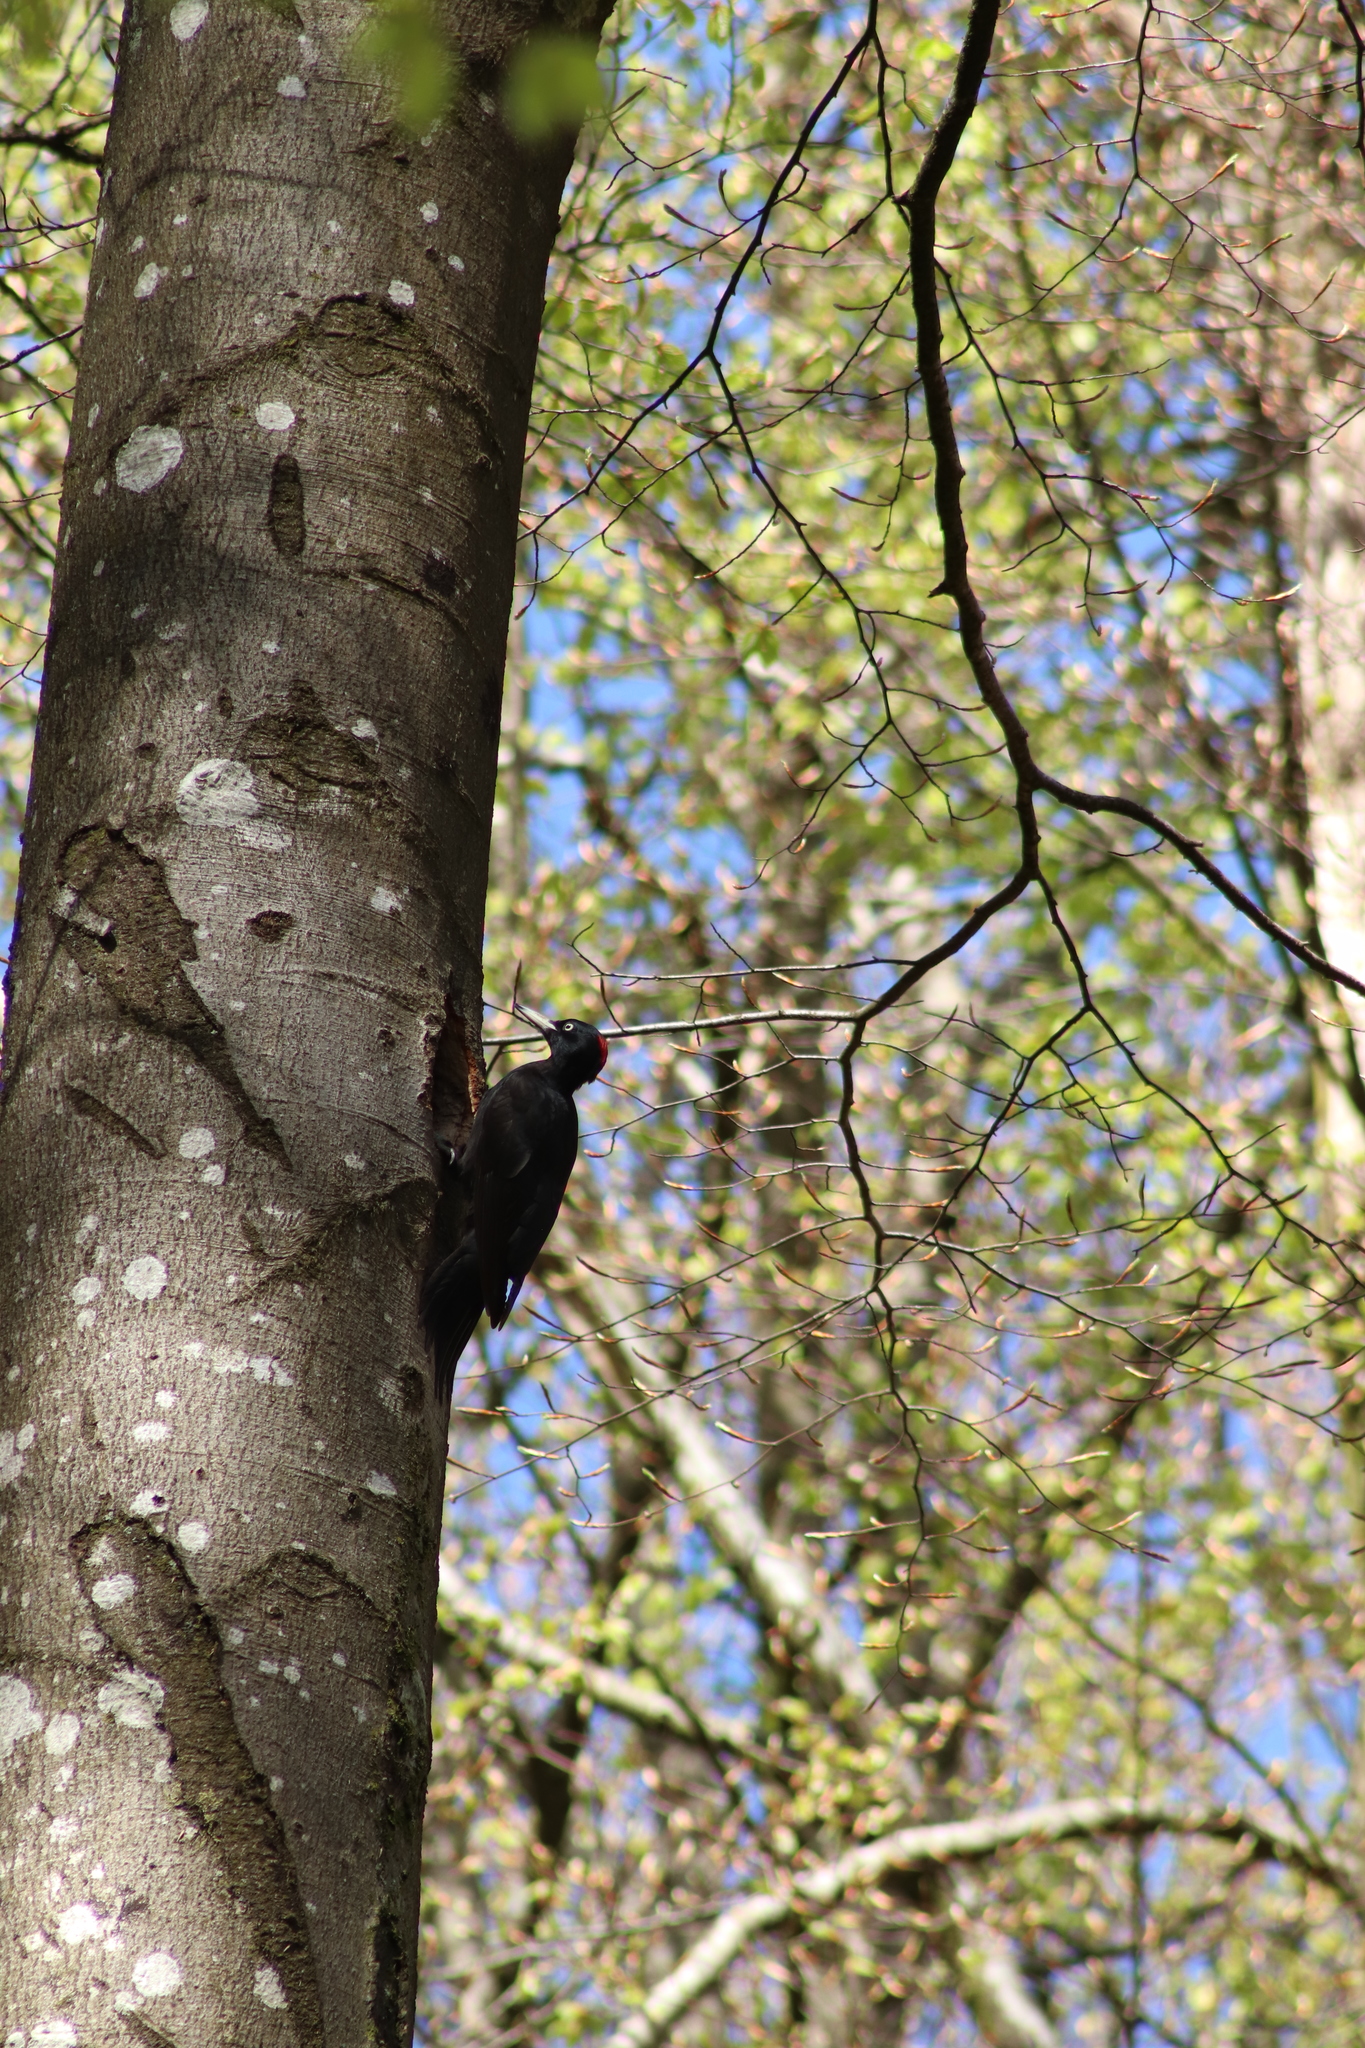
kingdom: Animalia
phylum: Chordata
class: Aves
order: Piciformes
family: Picidae
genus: Dryocopus
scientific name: Dryocopus martius
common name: Black woodpecker
